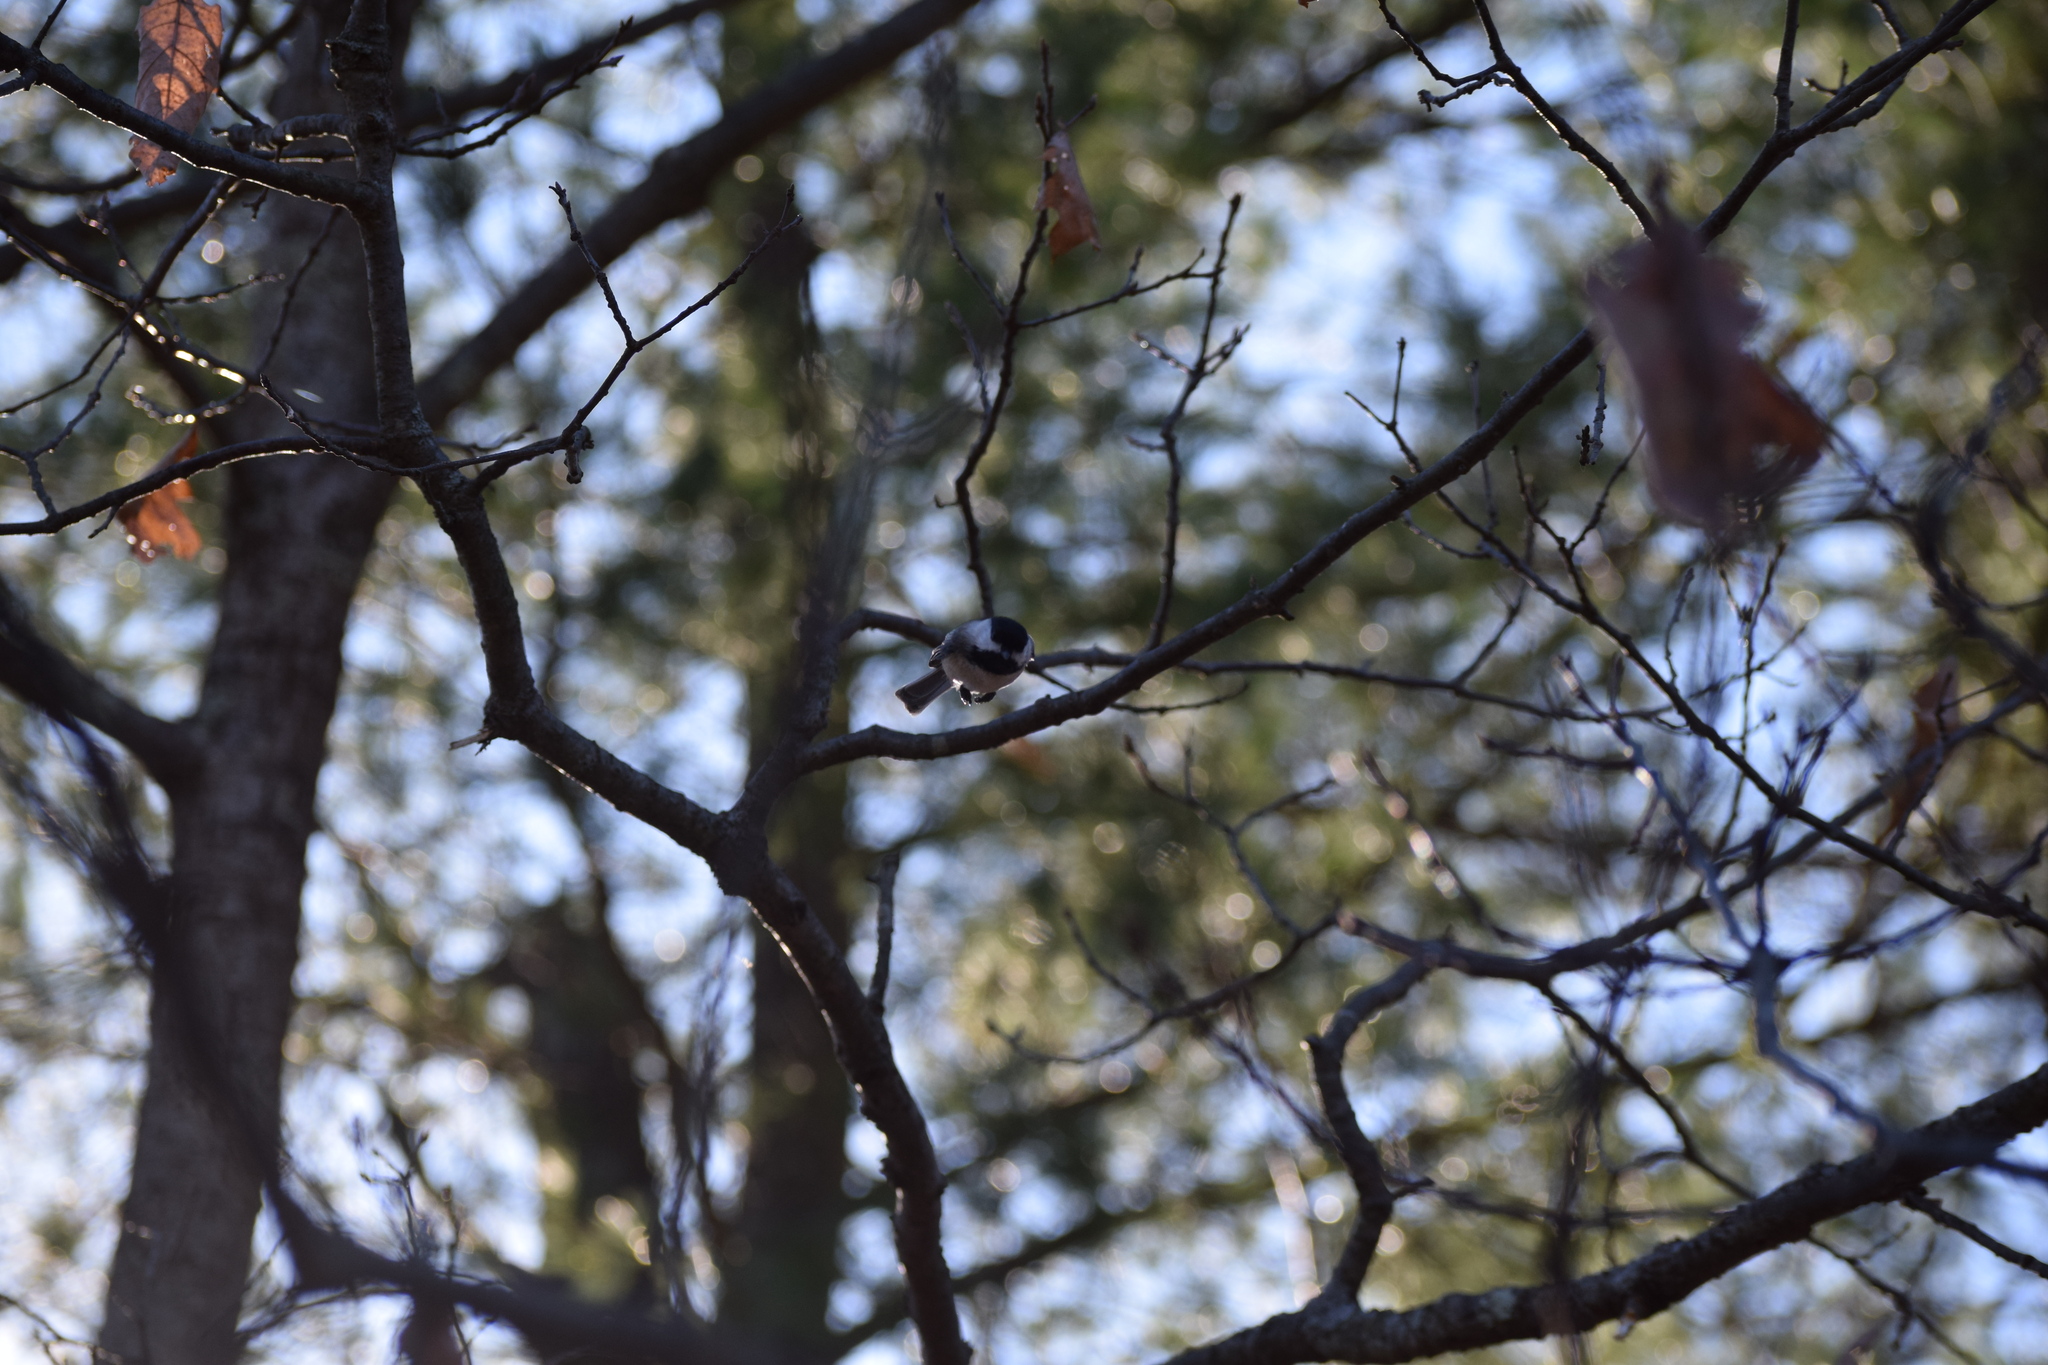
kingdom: Animalia
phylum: Chordata
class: Aves
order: Passeriformes
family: Paridae
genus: Poecile
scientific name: Poecile atricapillus
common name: Black-capped chickadee
